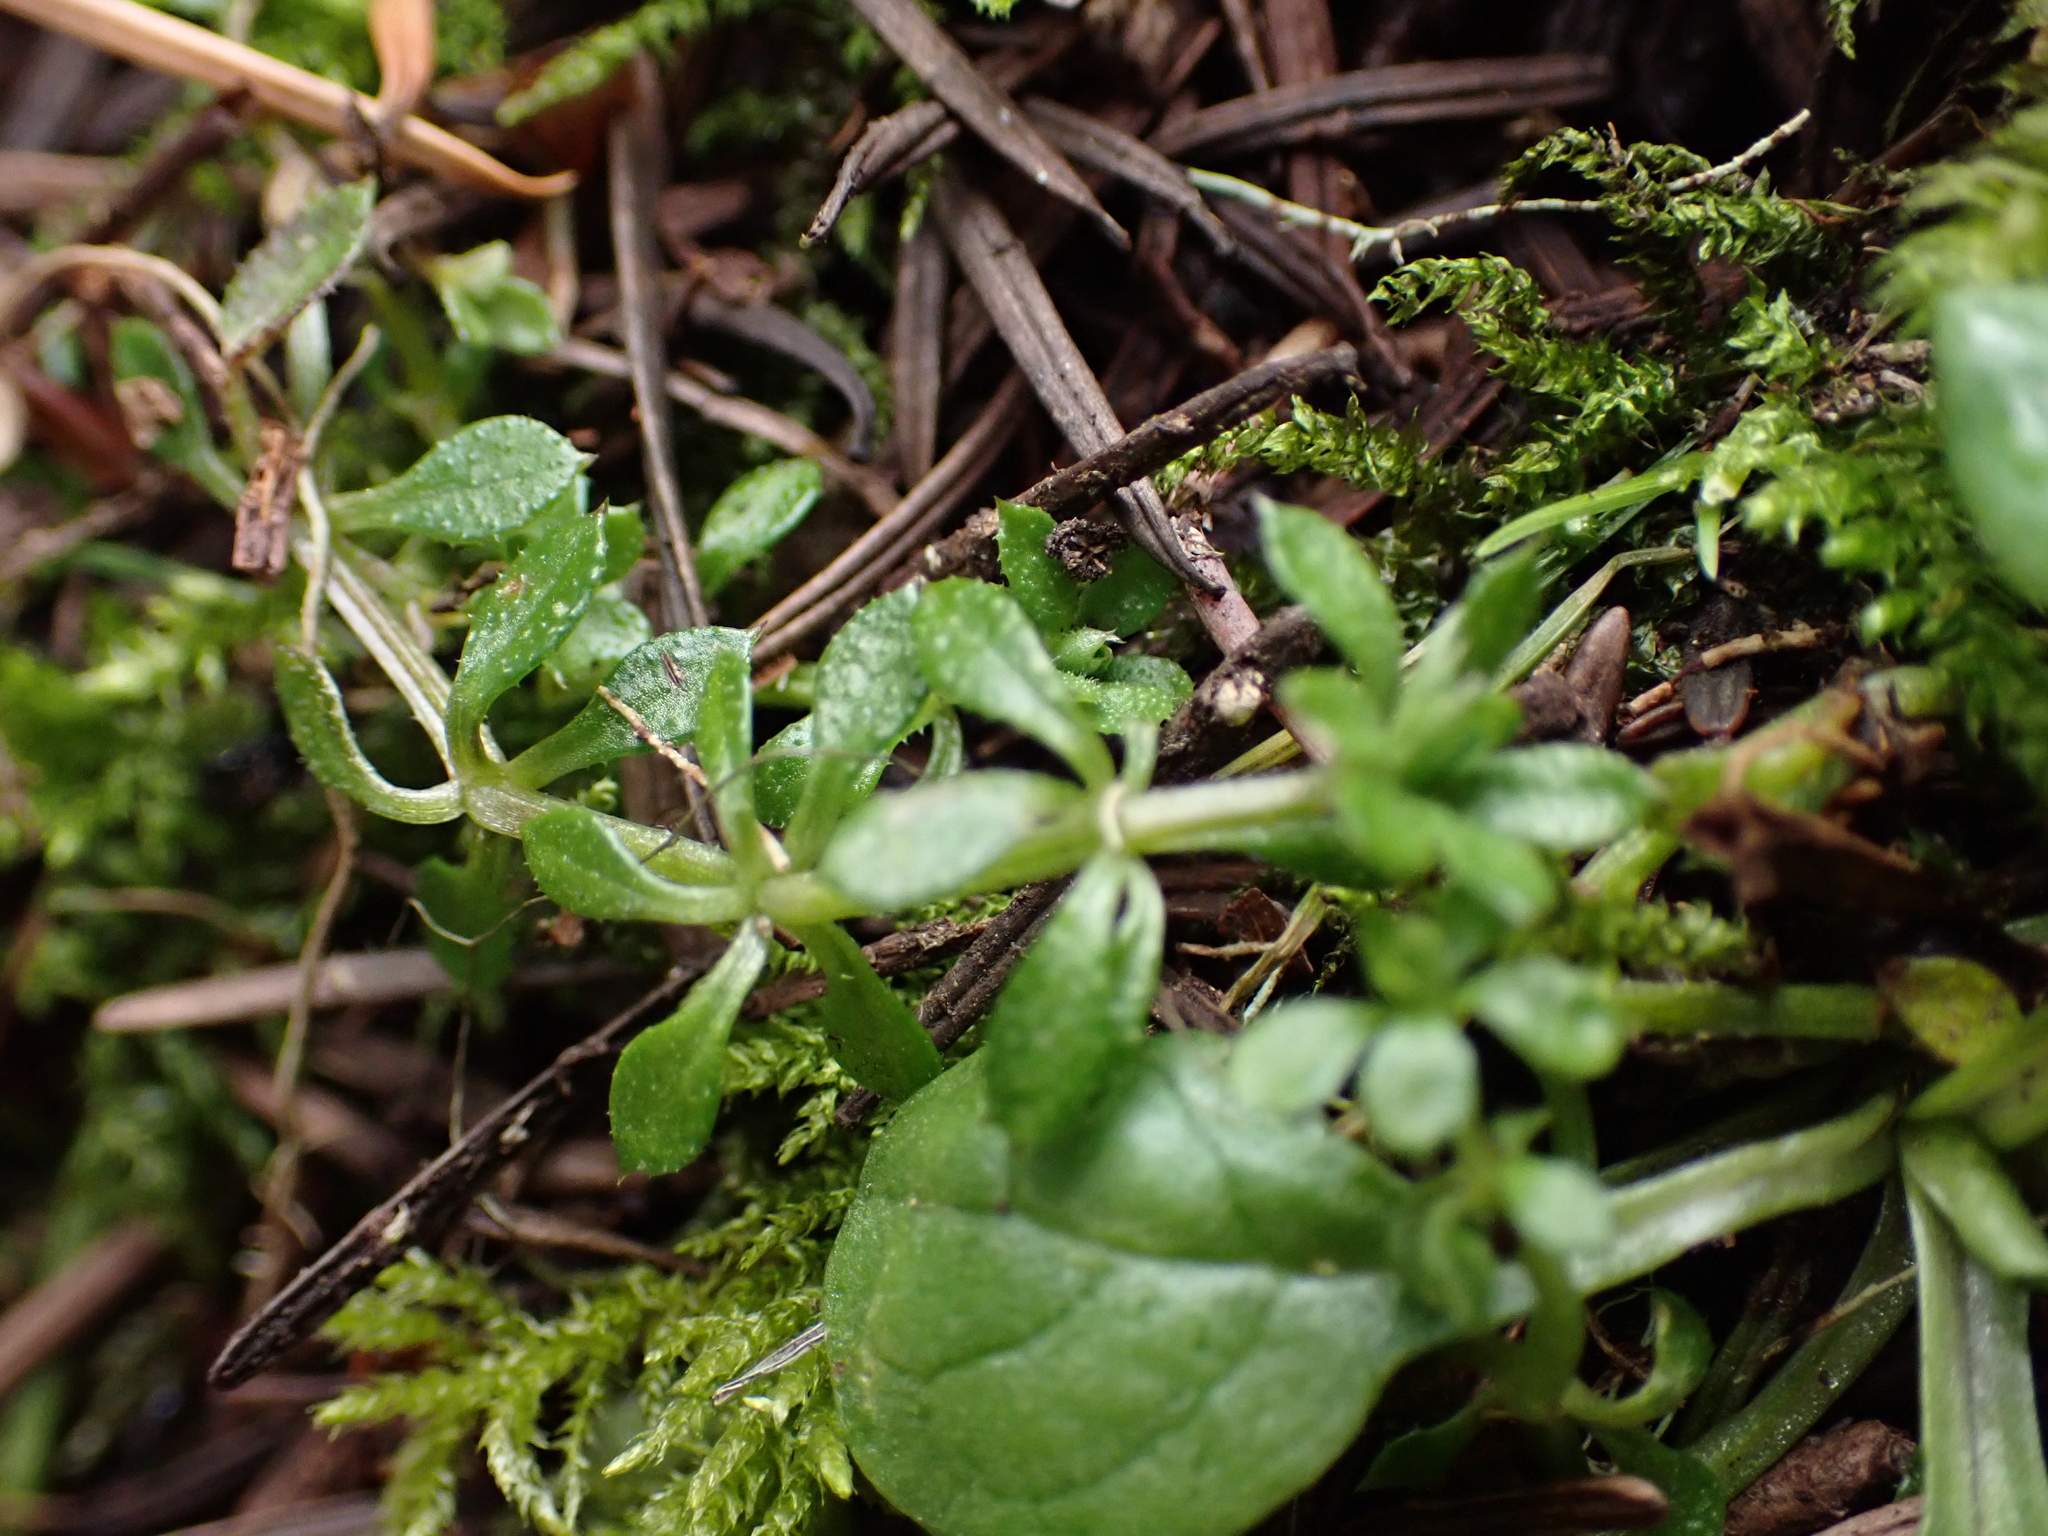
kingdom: Plantae
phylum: Tracheophyta
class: Magnoliopsida
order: Gentianales
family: Rubiaceae
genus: Galium
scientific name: Galium aparine
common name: Cleavers
